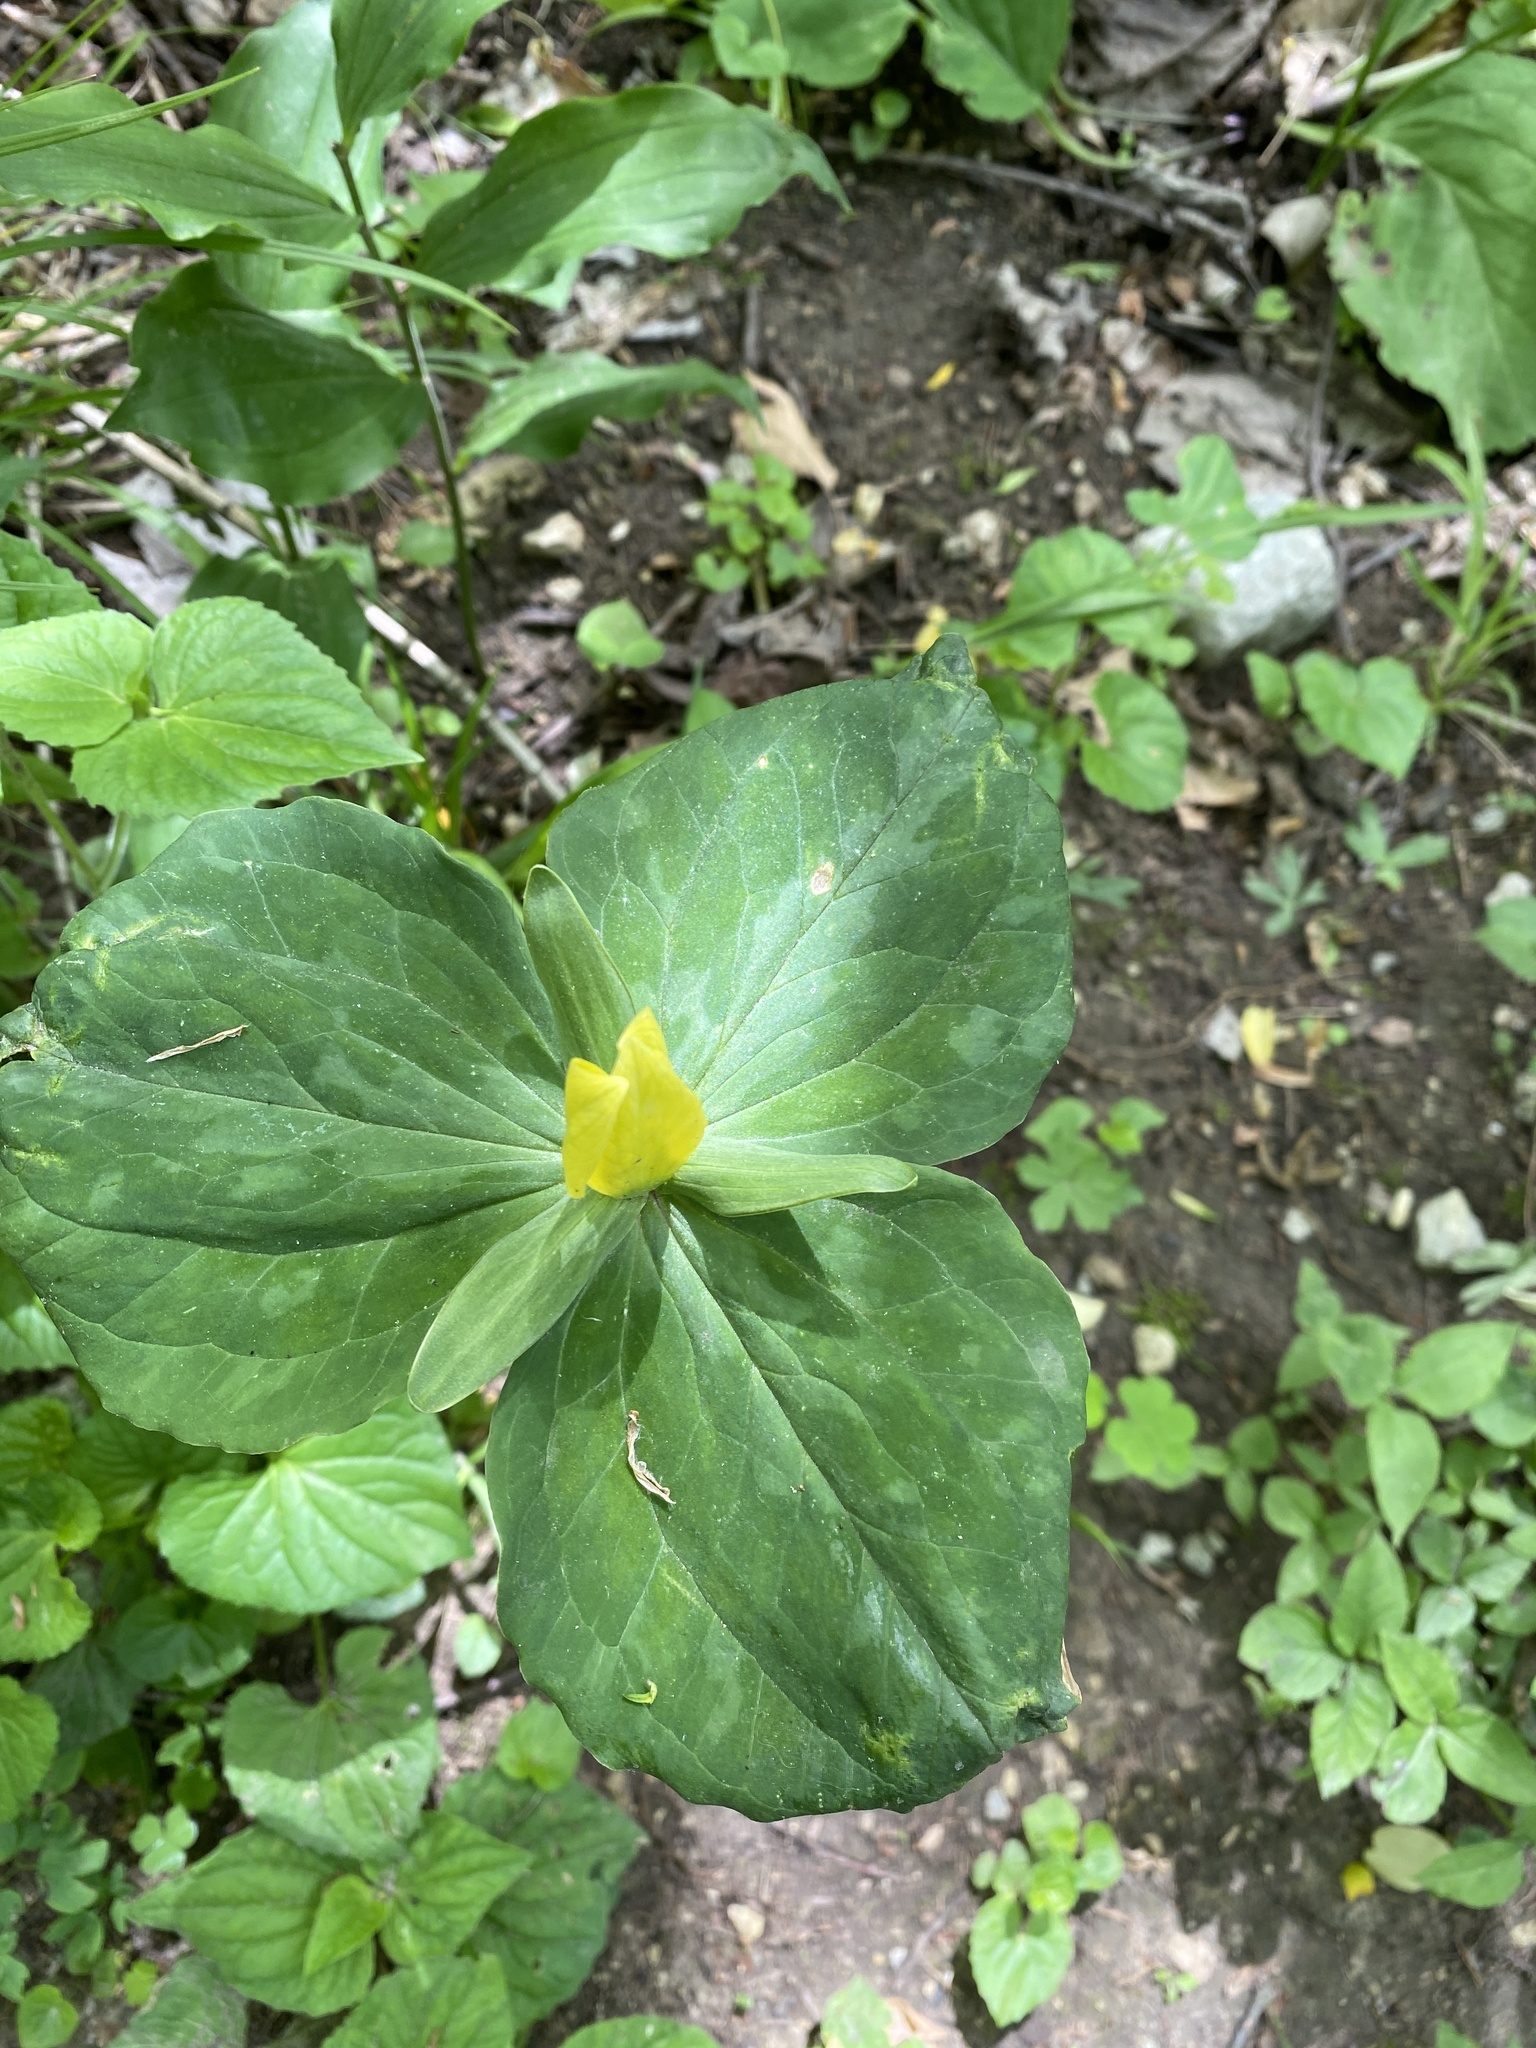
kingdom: Plantae
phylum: Tracheophyta
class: Liliopsida
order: Liliales
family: Melanthiaceae
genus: Trillium
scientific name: Trillium luteum
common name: Wax trillium
